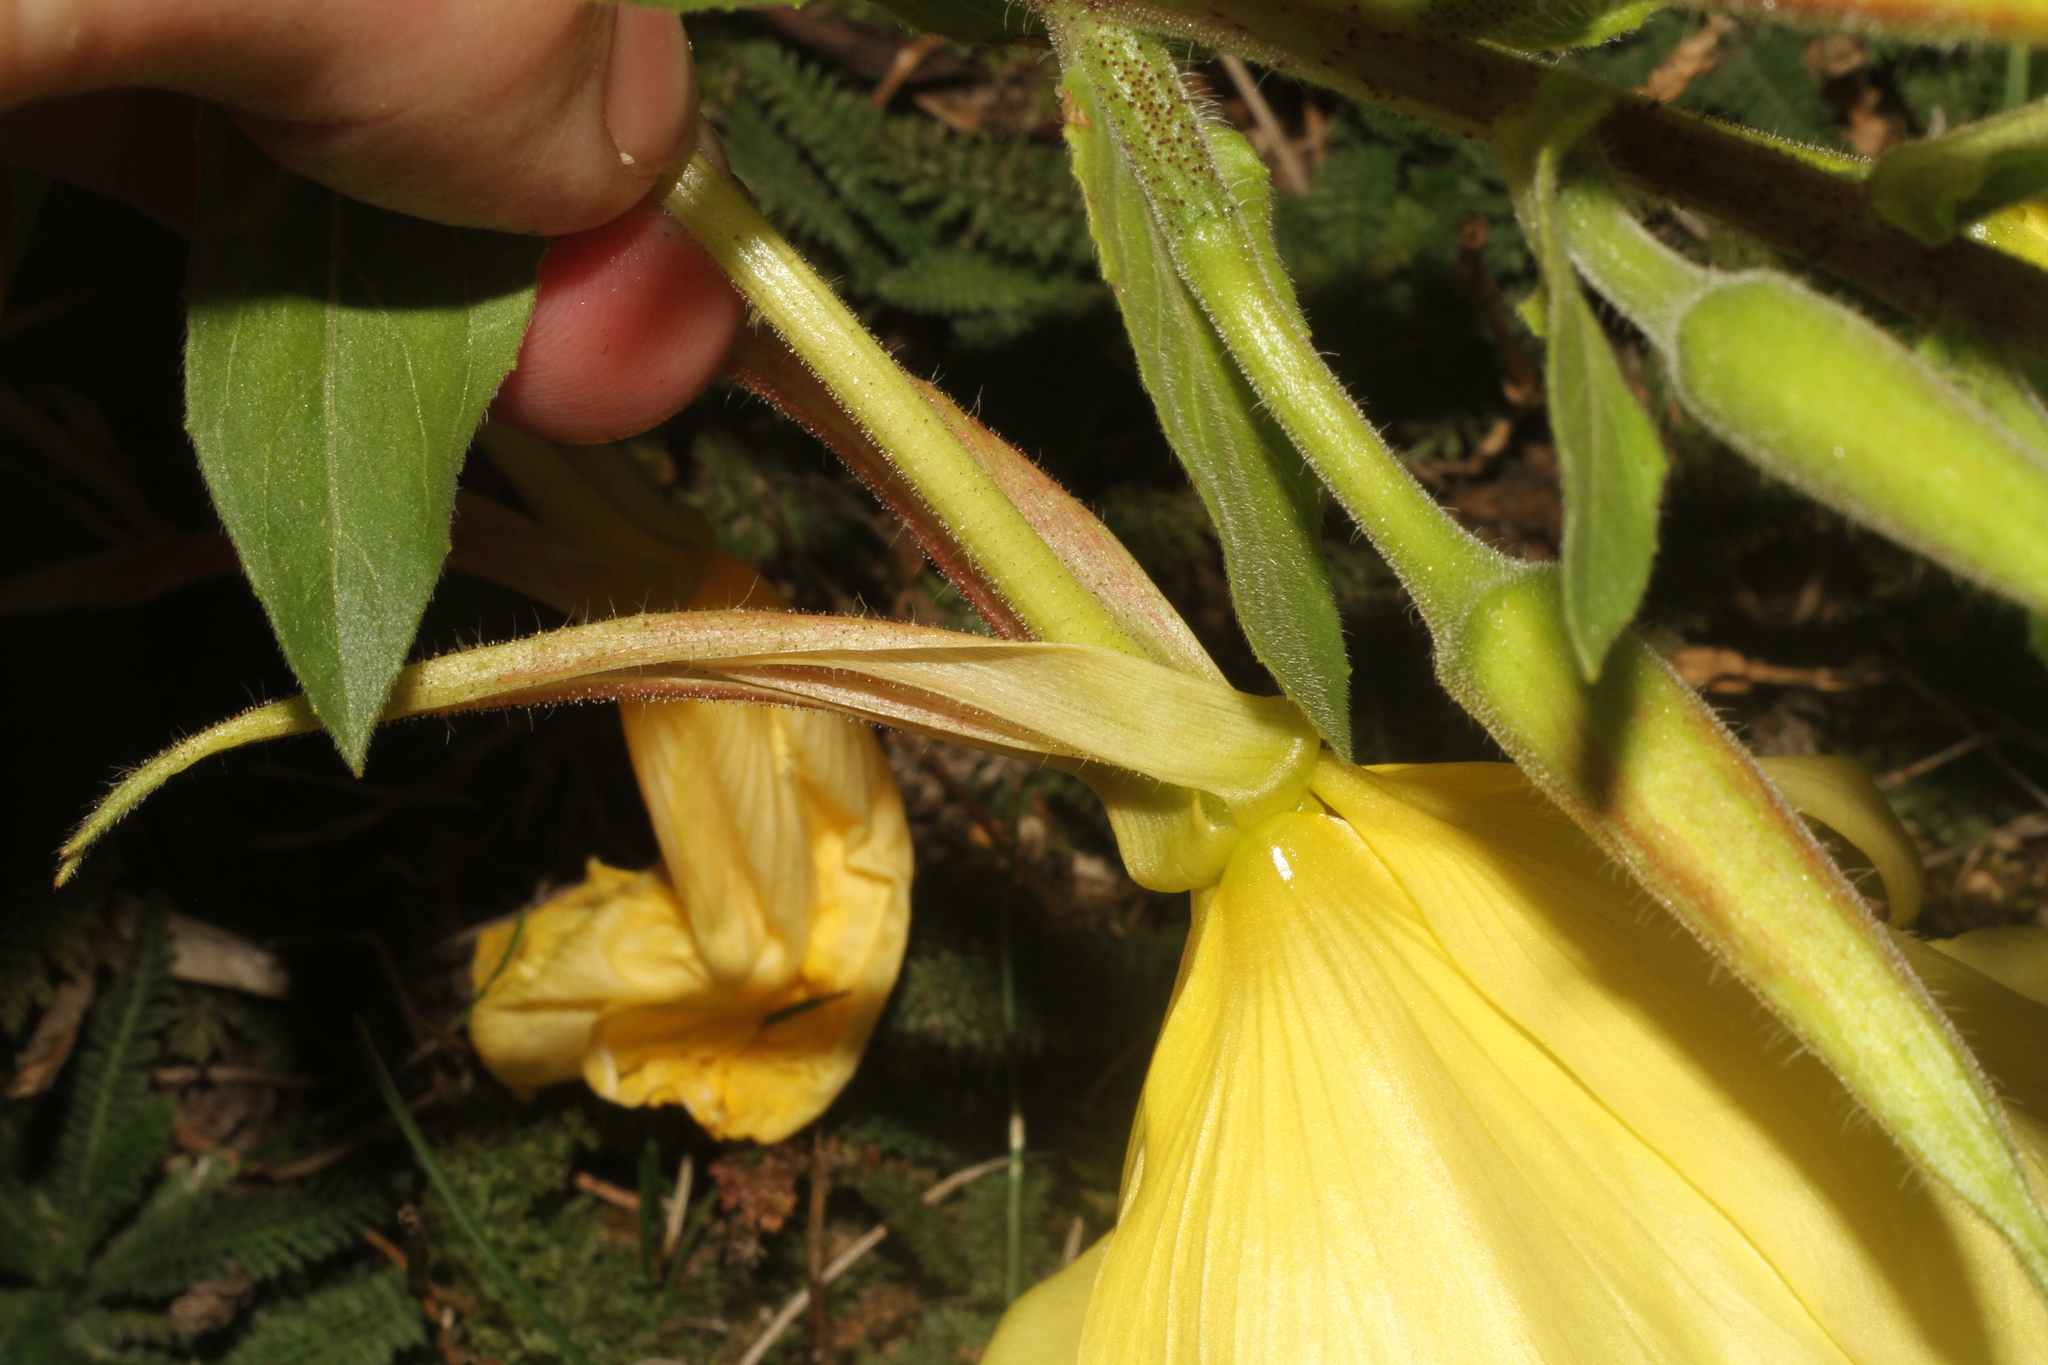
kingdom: Plantae
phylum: Tracheophyta
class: Magnoliopsida
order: Myrtales
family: Onagraceae
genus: Oenothera
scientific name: Oenothera glazioviana
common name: Large-flowered evening-primrose
